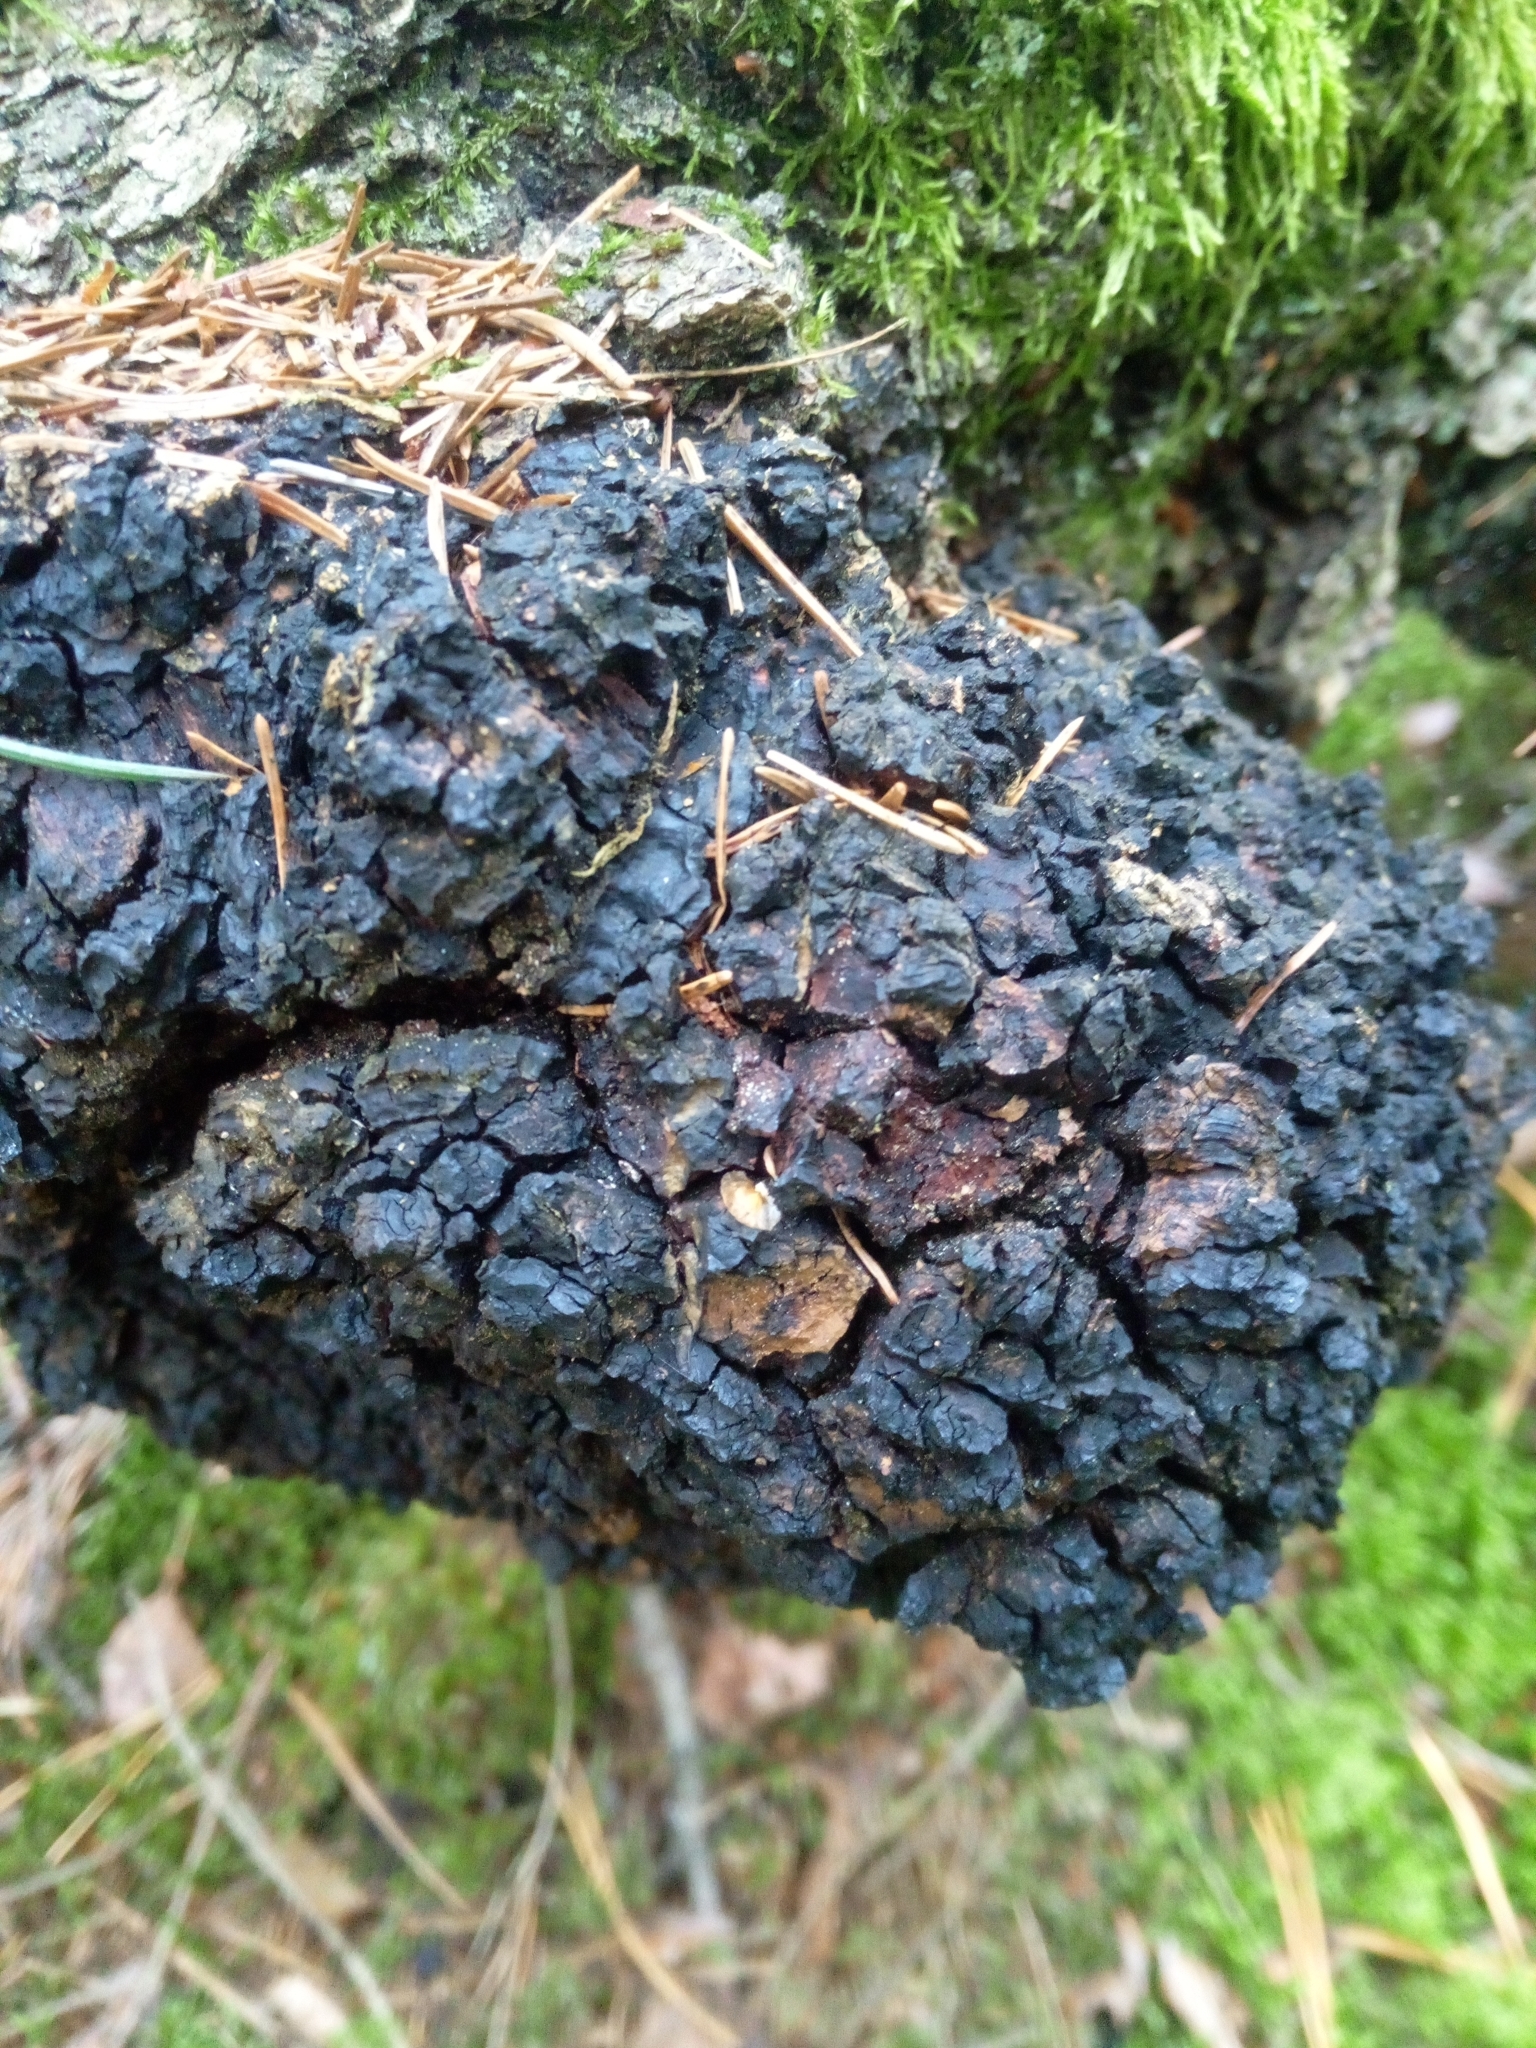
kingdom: Fungi
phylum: Basidiomycota
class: Agaricomycetes
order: Hymenochaetales
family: Hymenochaetaceae
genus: Inonotus
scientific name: Inonotus obliquus
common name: Chaga
